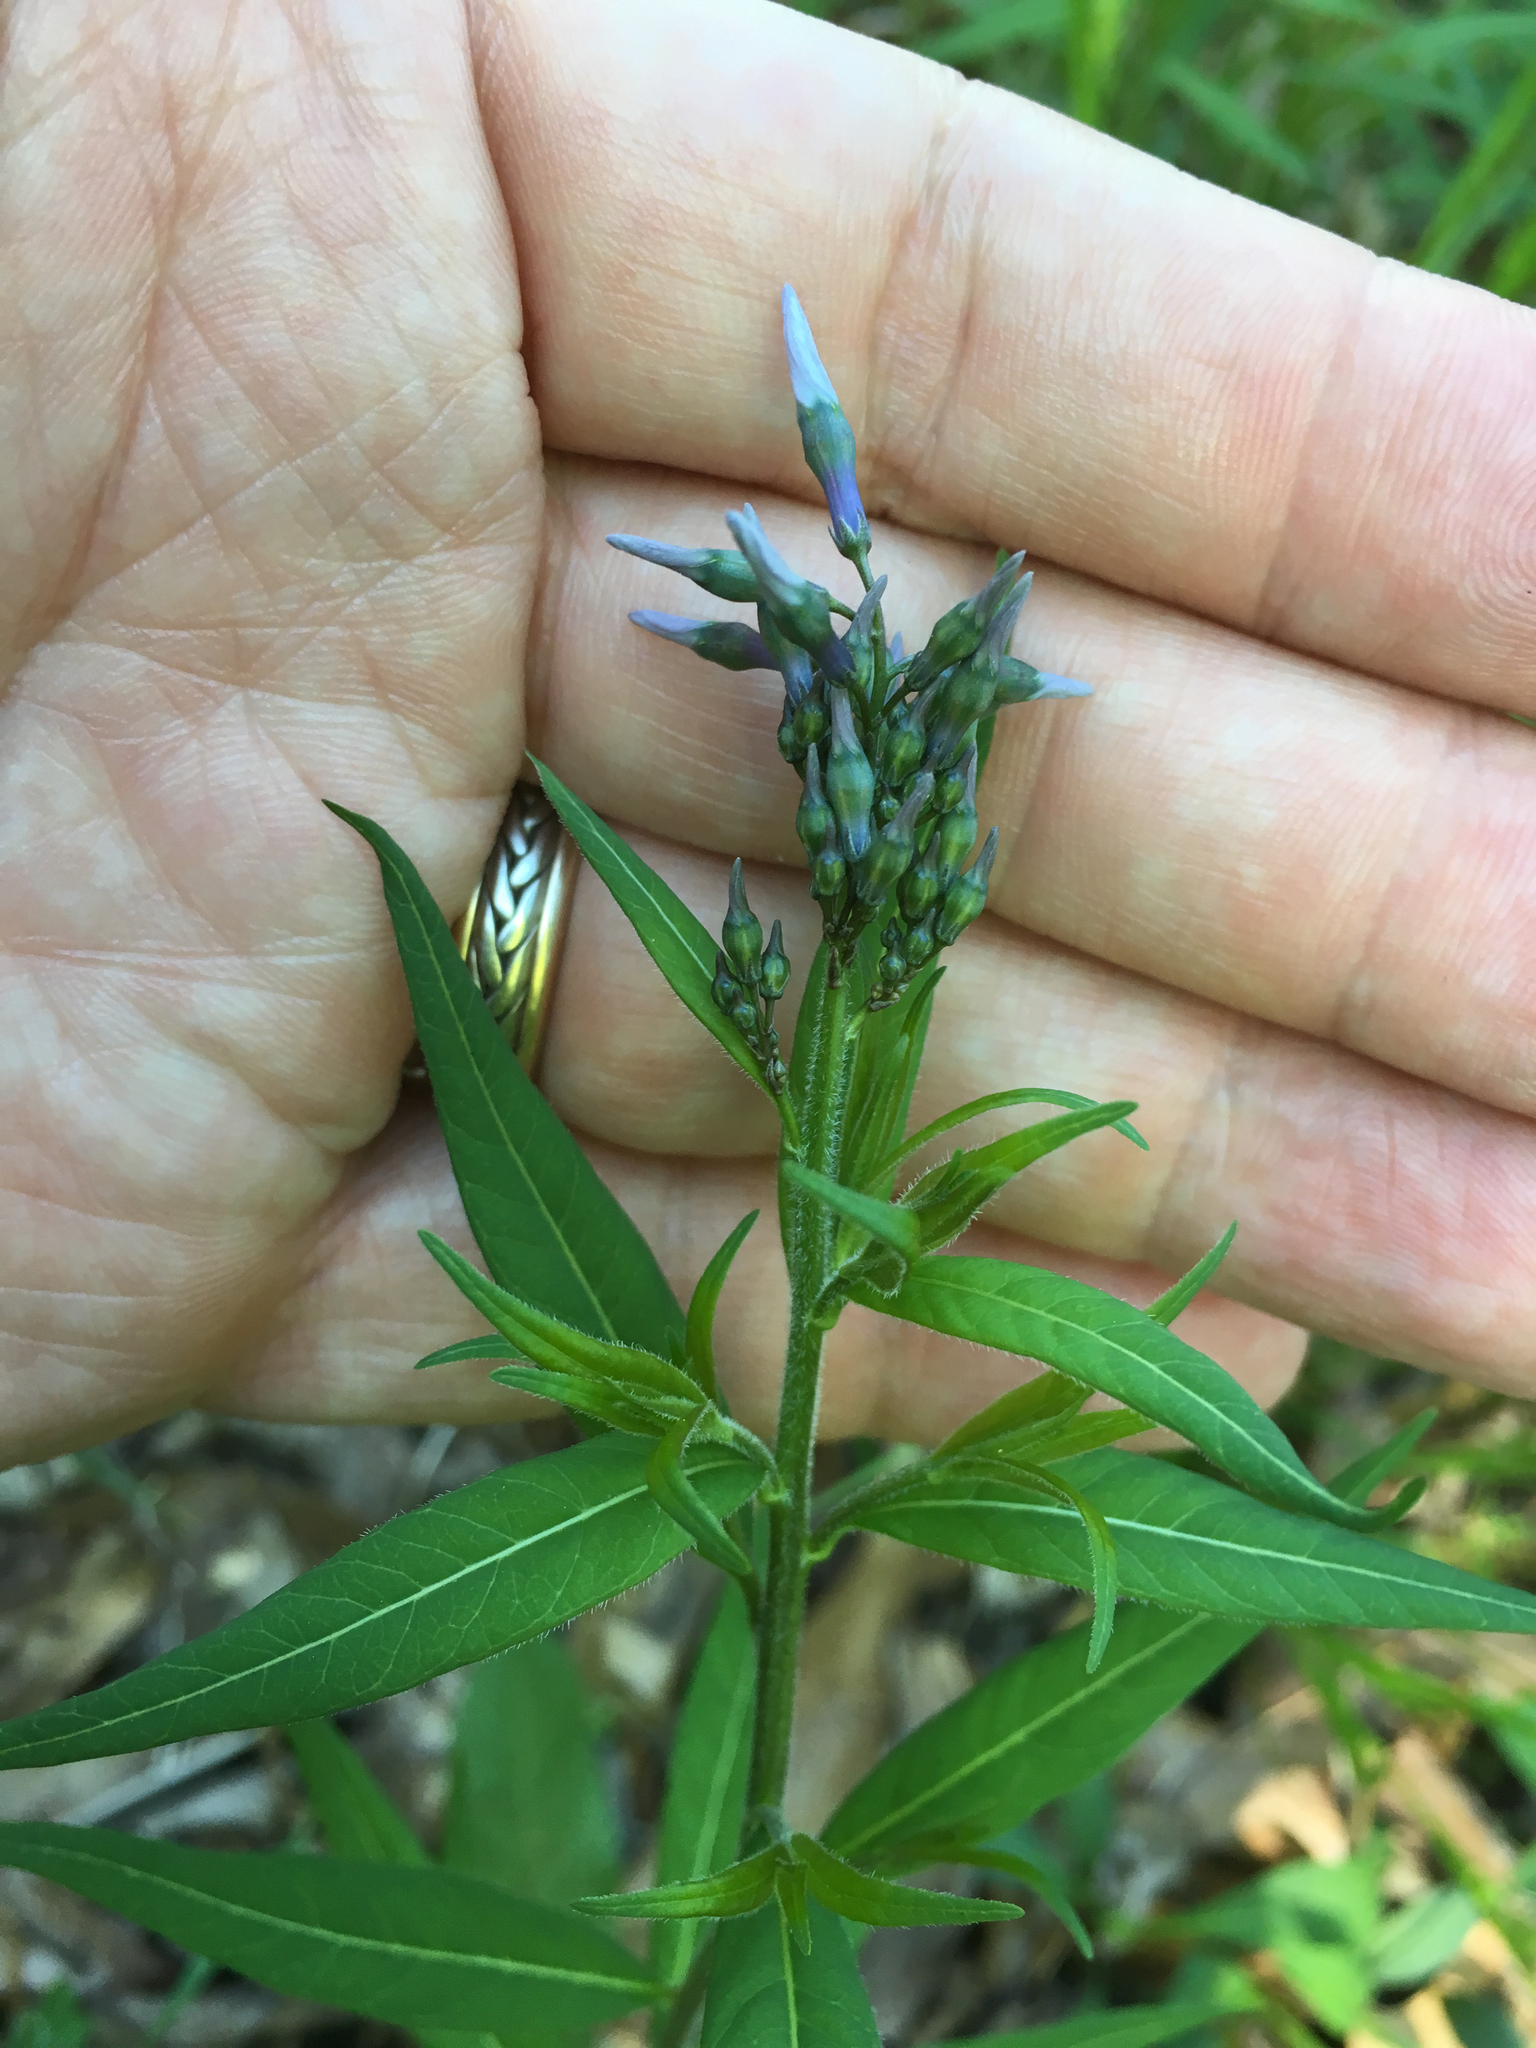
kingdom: Plantae
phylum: Tracheophyta
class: Magnoliopsida
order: Gentianales
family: Apocynaceae
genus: Amsonia
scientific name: Amsonia tabernaemontana
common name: Texas-star
